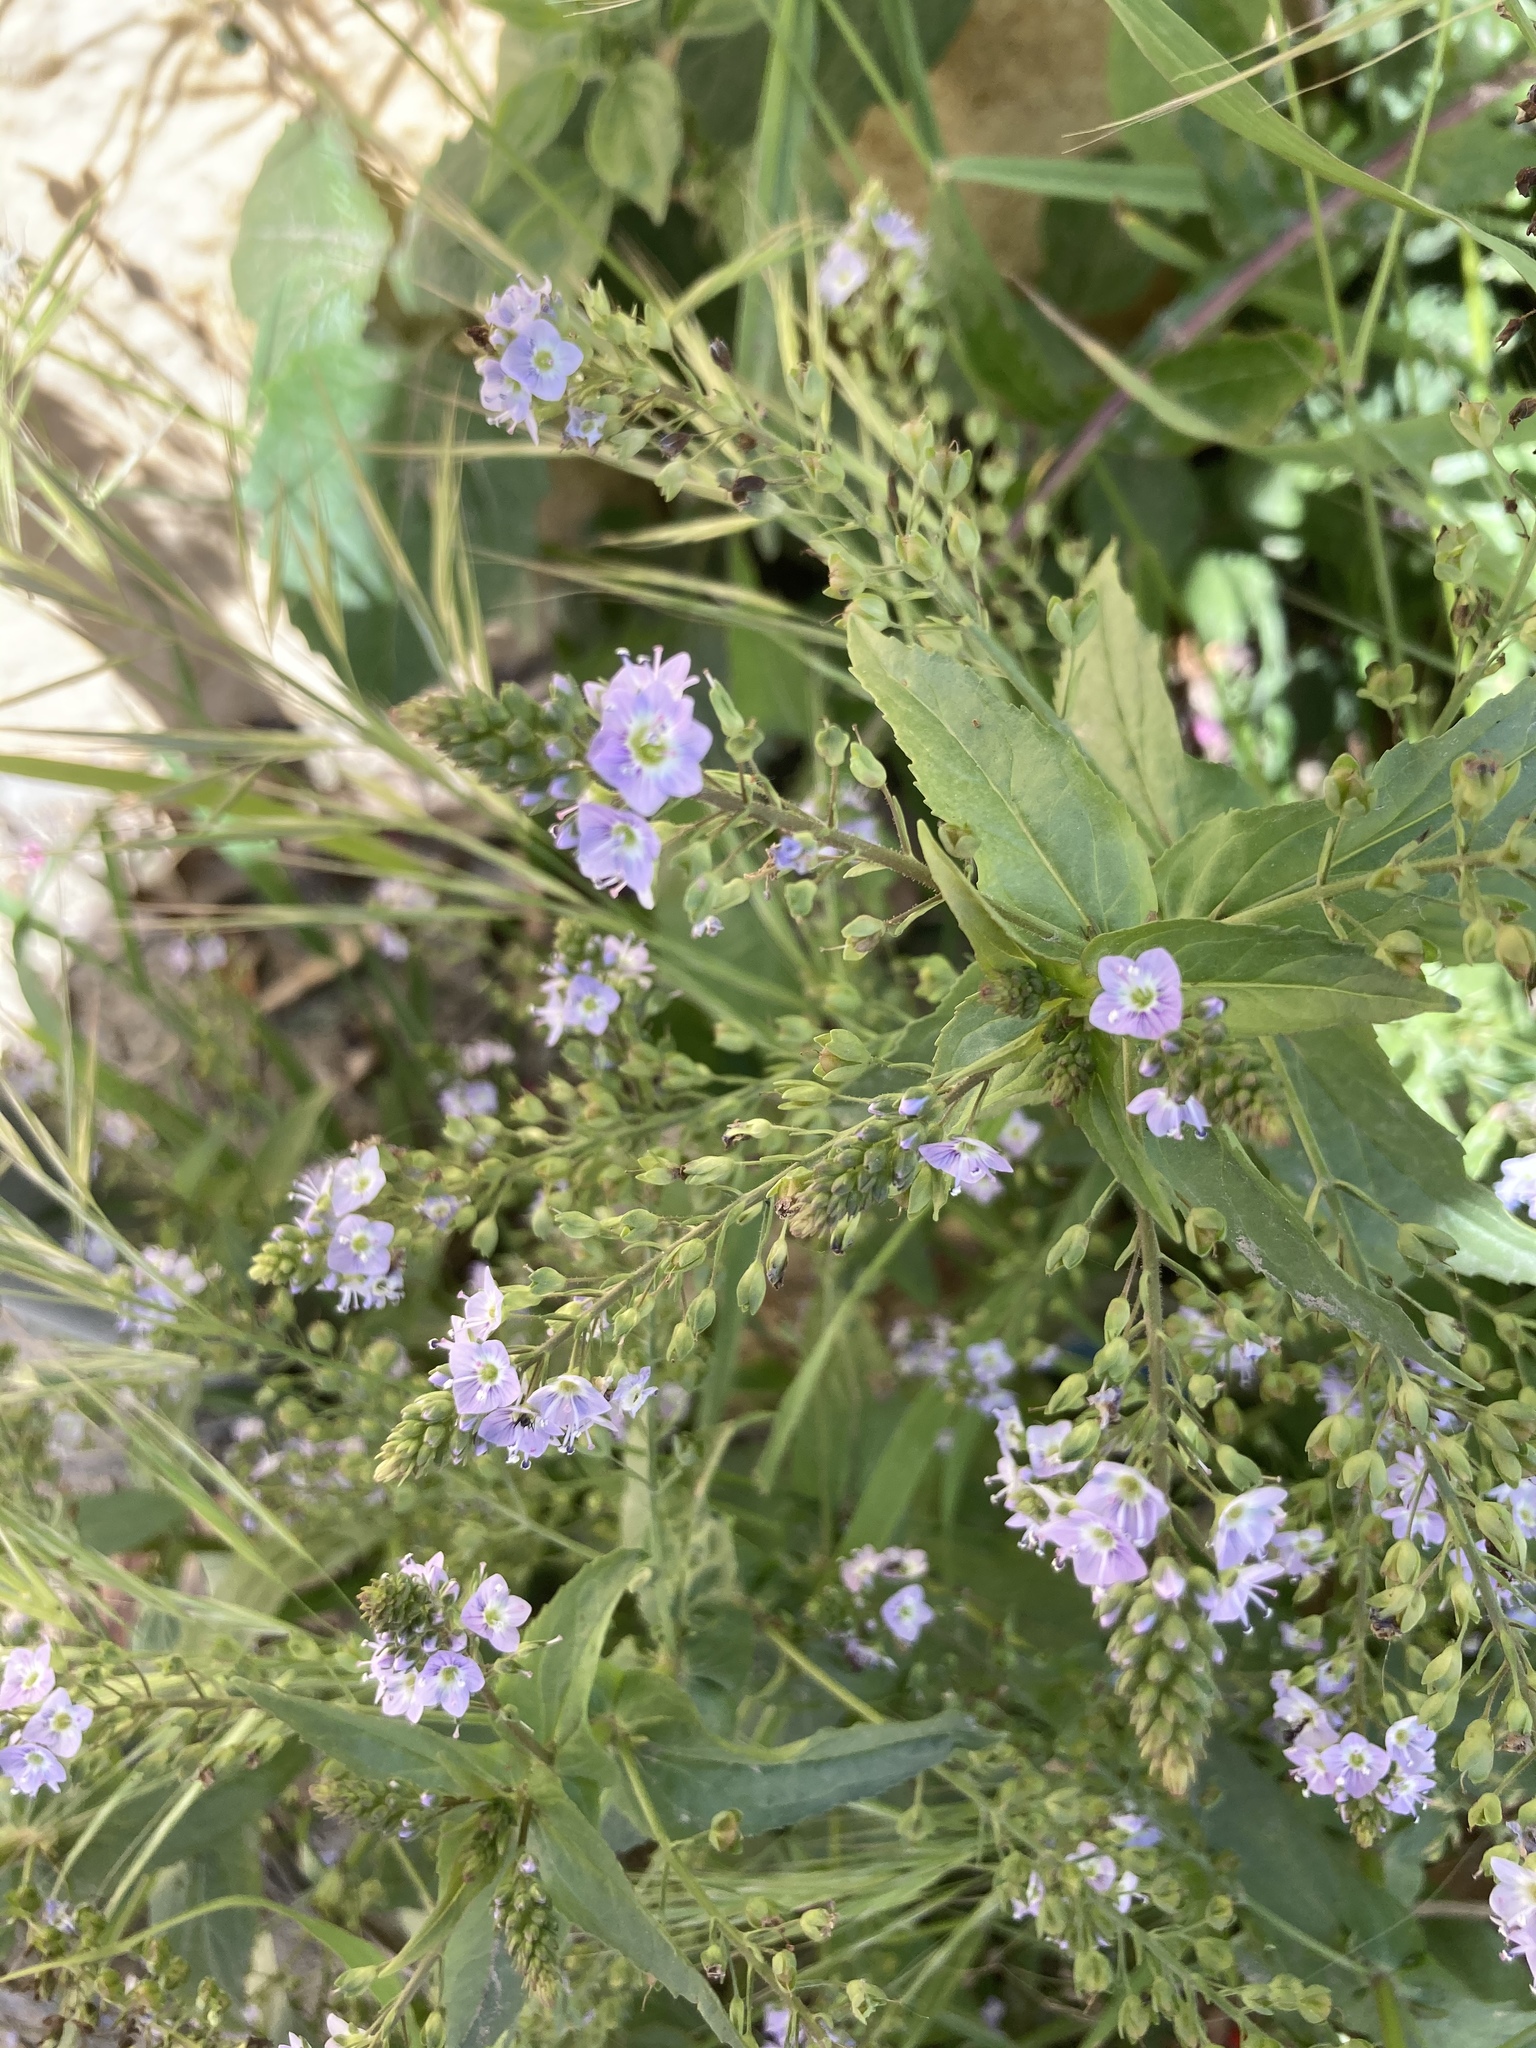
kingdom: Plantae
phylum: Tracheophyta
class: Magnoliopsida
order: Lamiales
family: Plantaginaceae
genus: Veronica
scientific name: Veronica anagallis-aquatica
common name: Water speedwell
